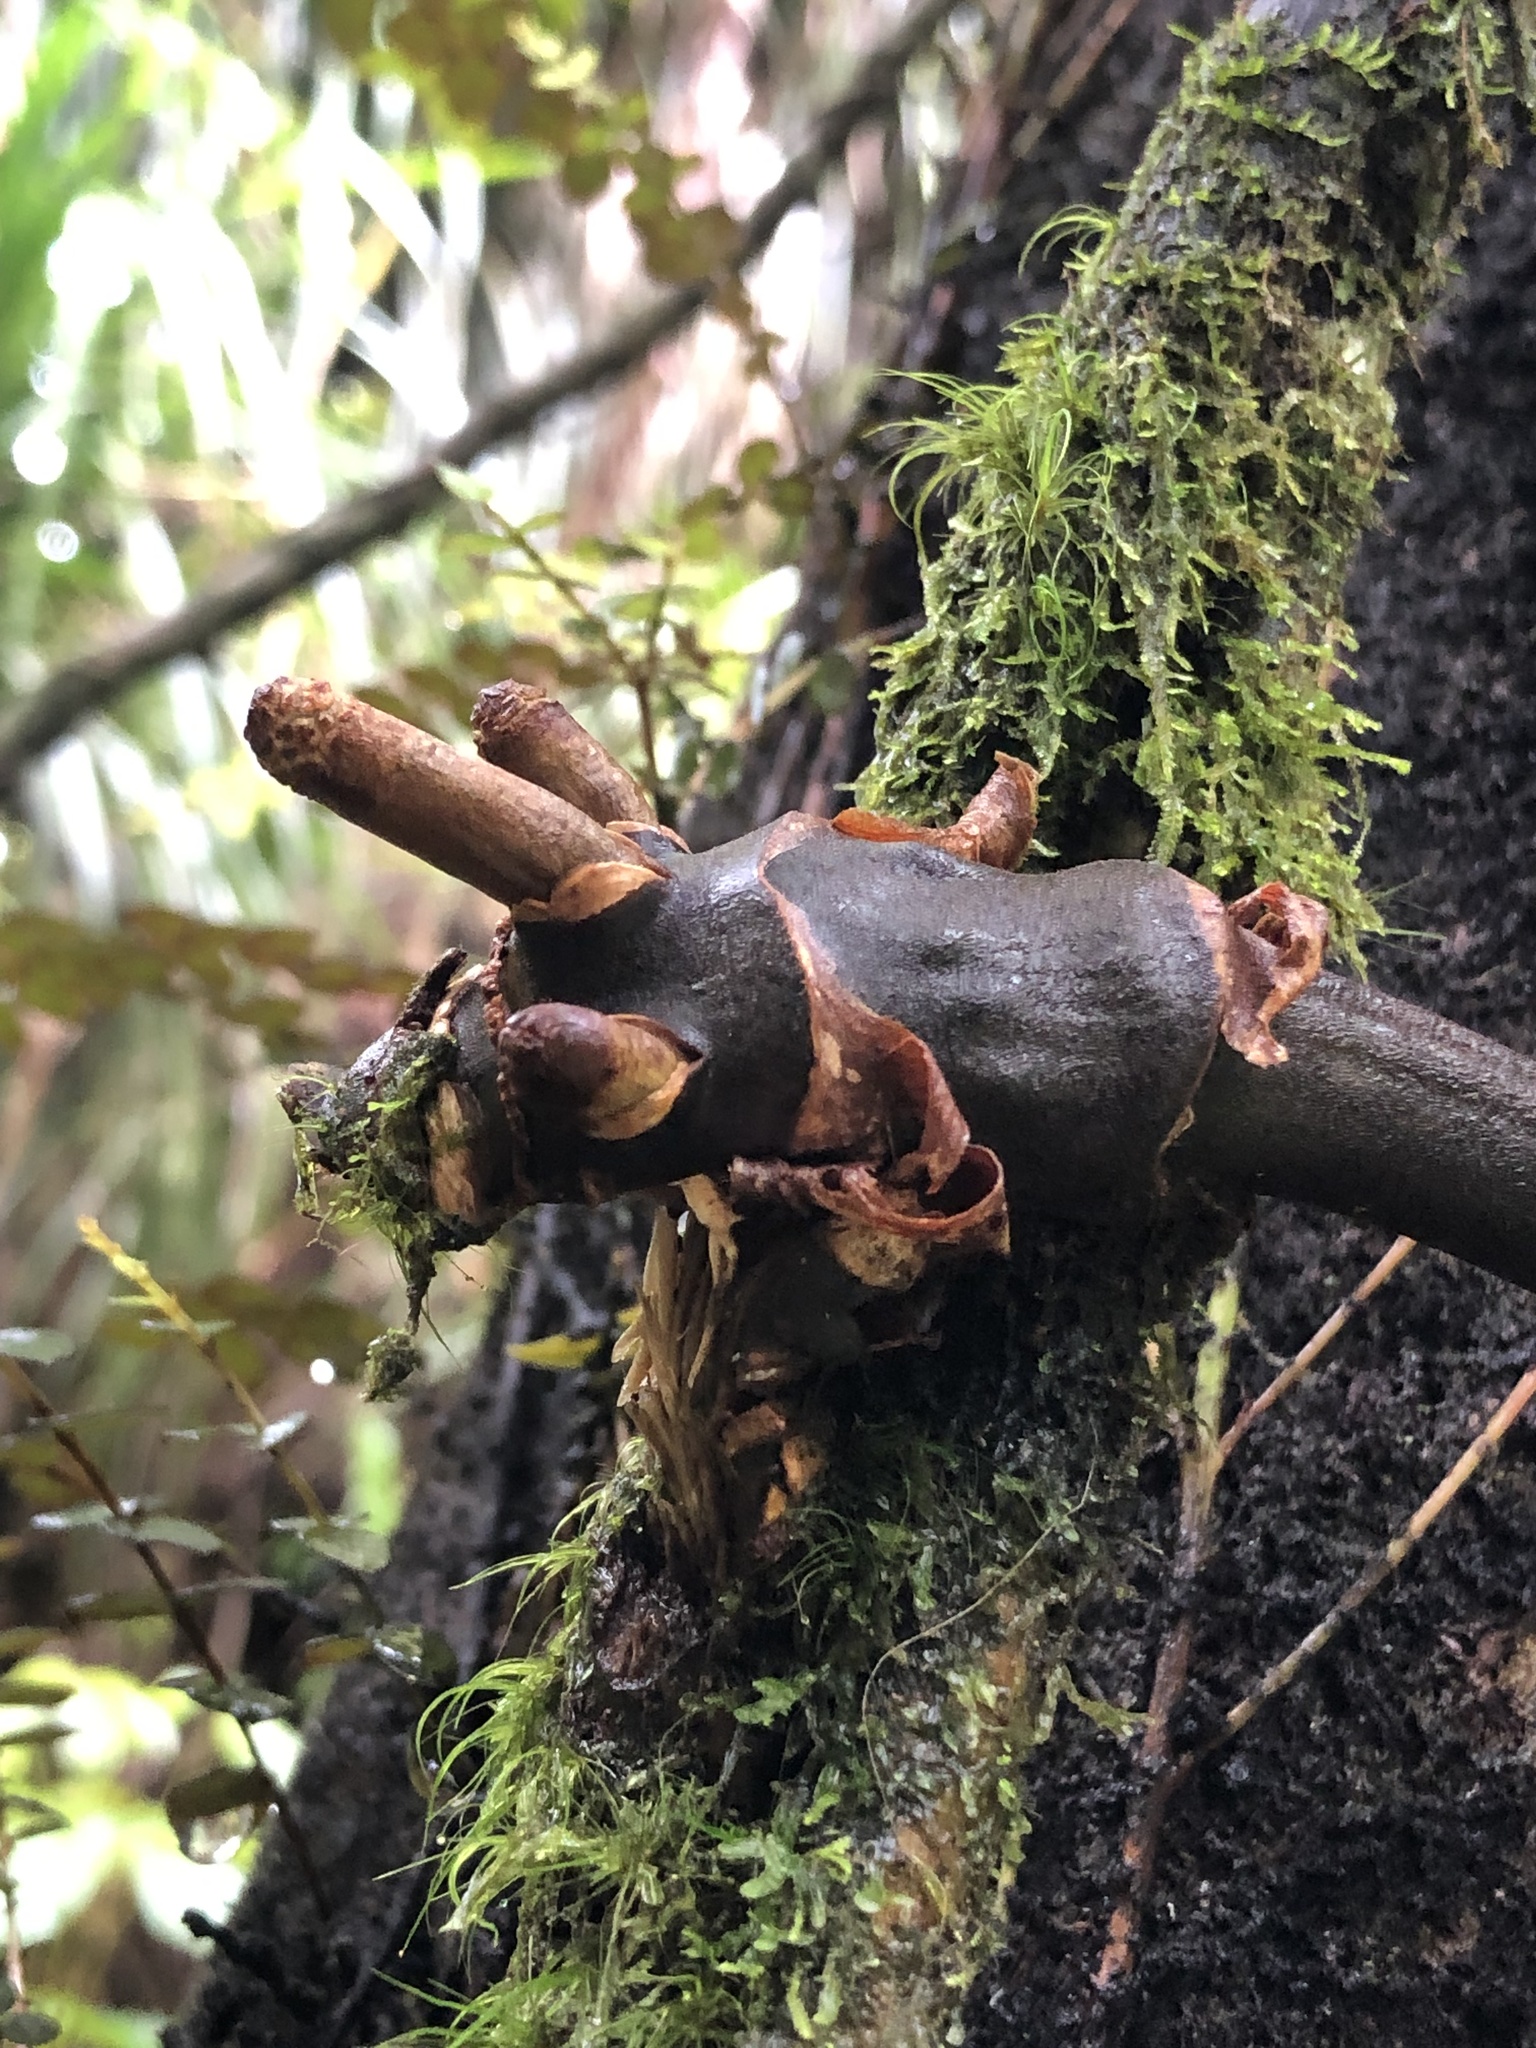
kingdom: Plantae
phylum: Tracheophyta
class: Liliopsida
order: Liliales
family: Ripogonaceae
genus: Ripogonum
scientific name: Ripogonum scandens
